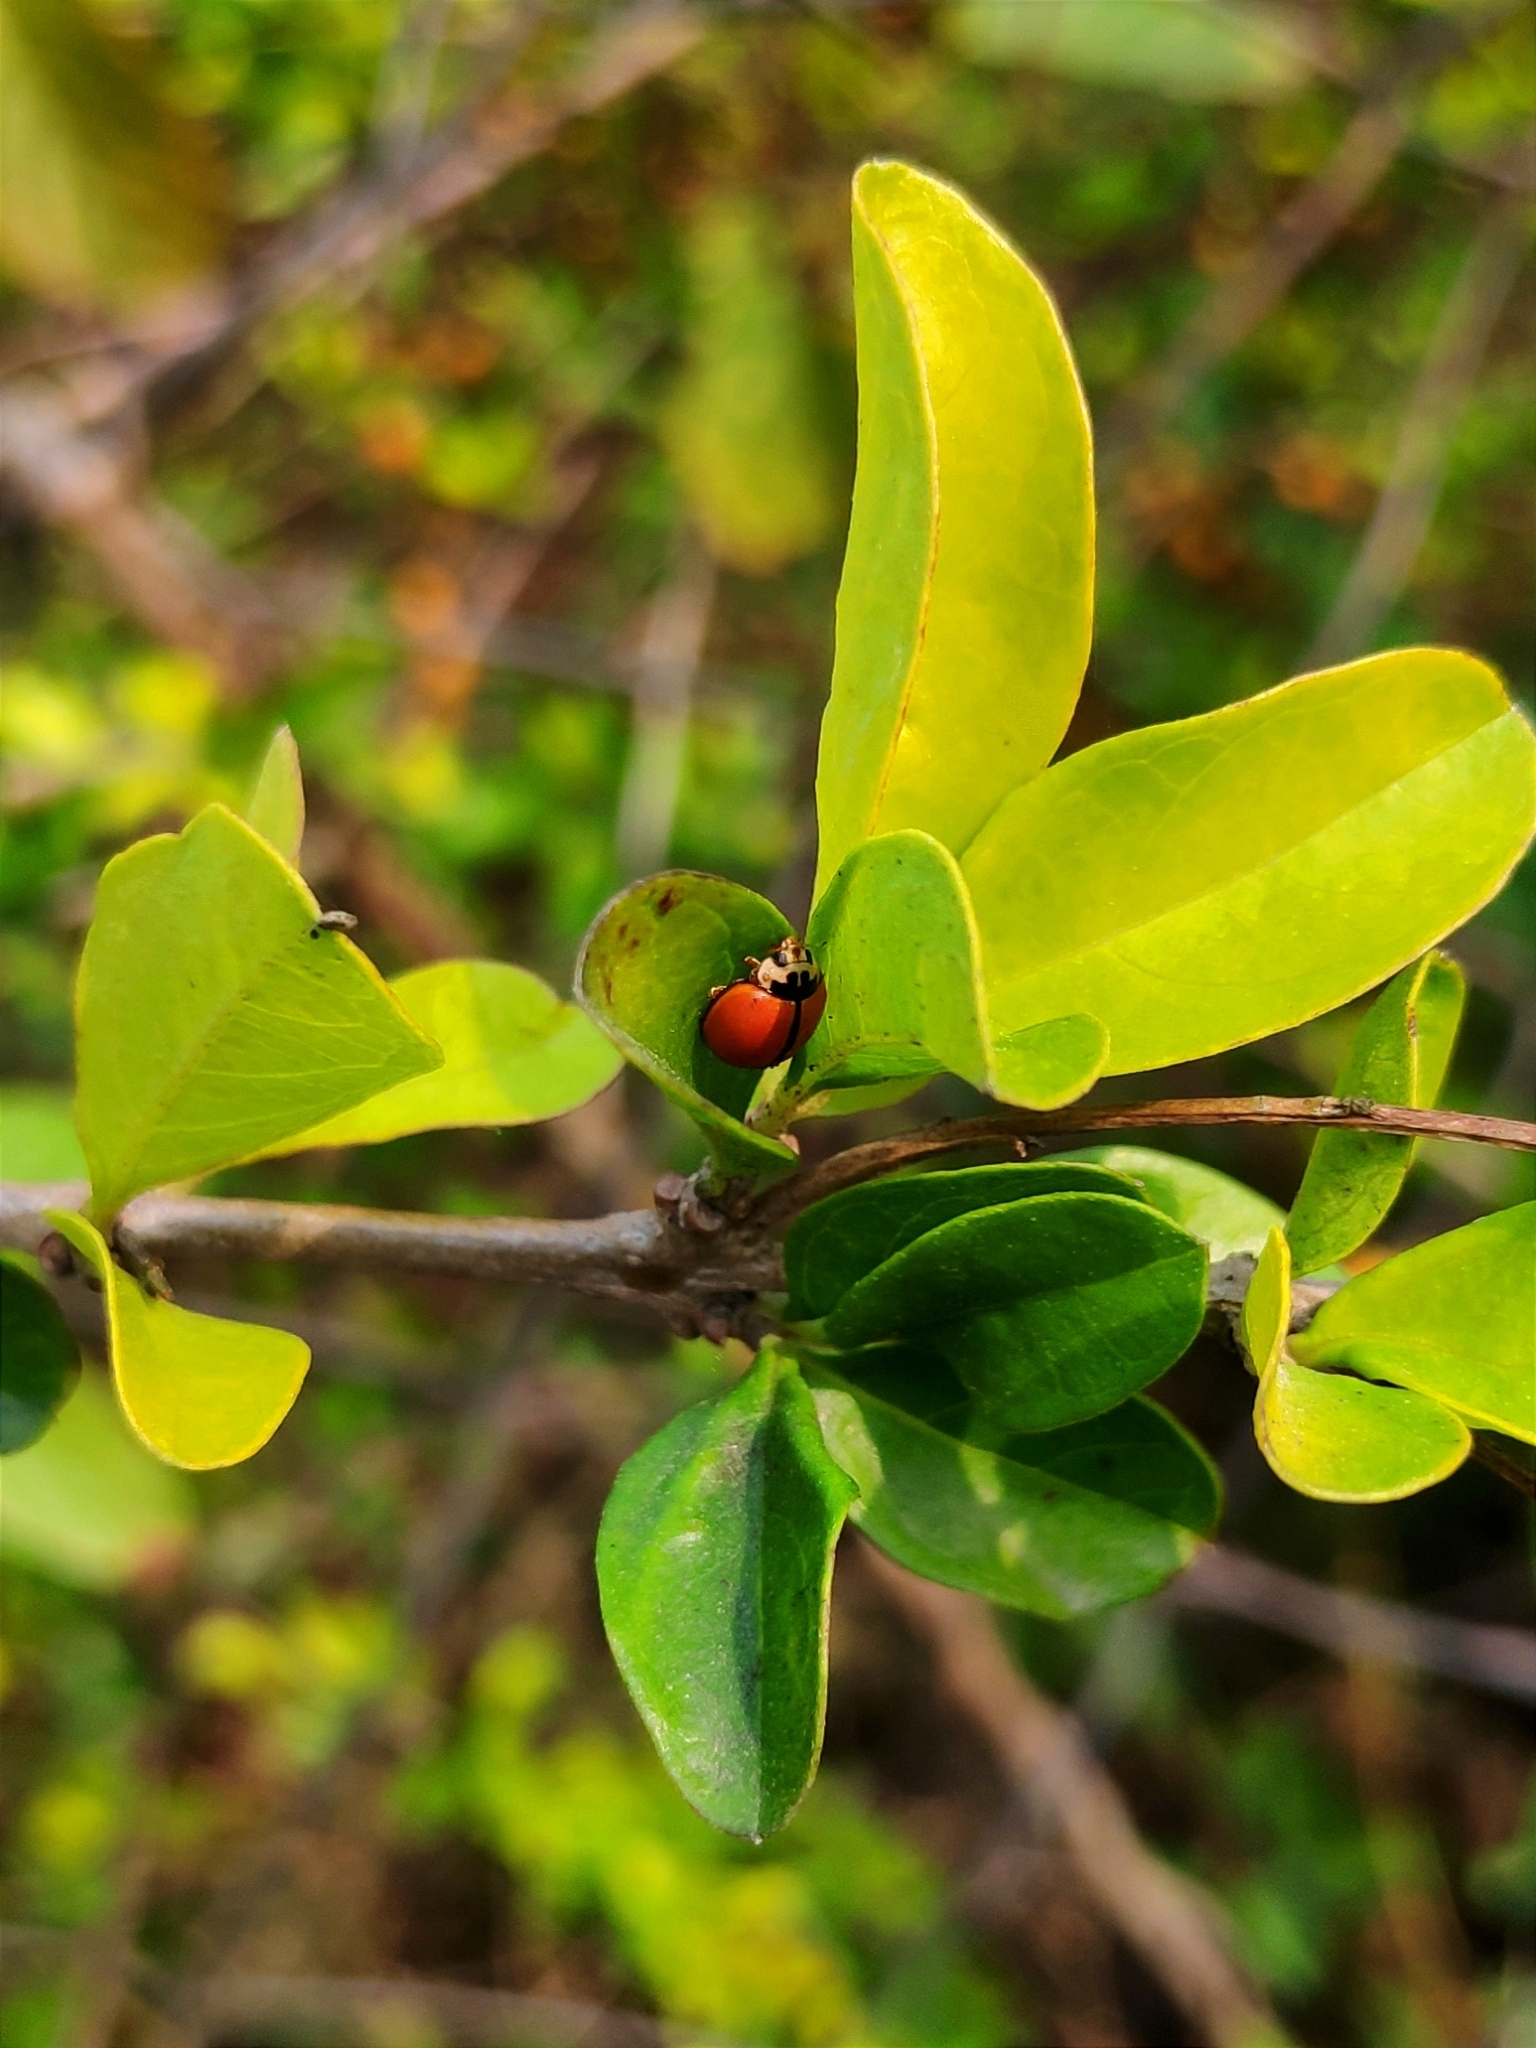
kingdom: Animalia
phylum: Arthropoda
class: Insecta
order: Coleoptera
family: Coccinellidae
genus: Micraspis
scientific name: Micraspis discolor
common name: Lady beetle
